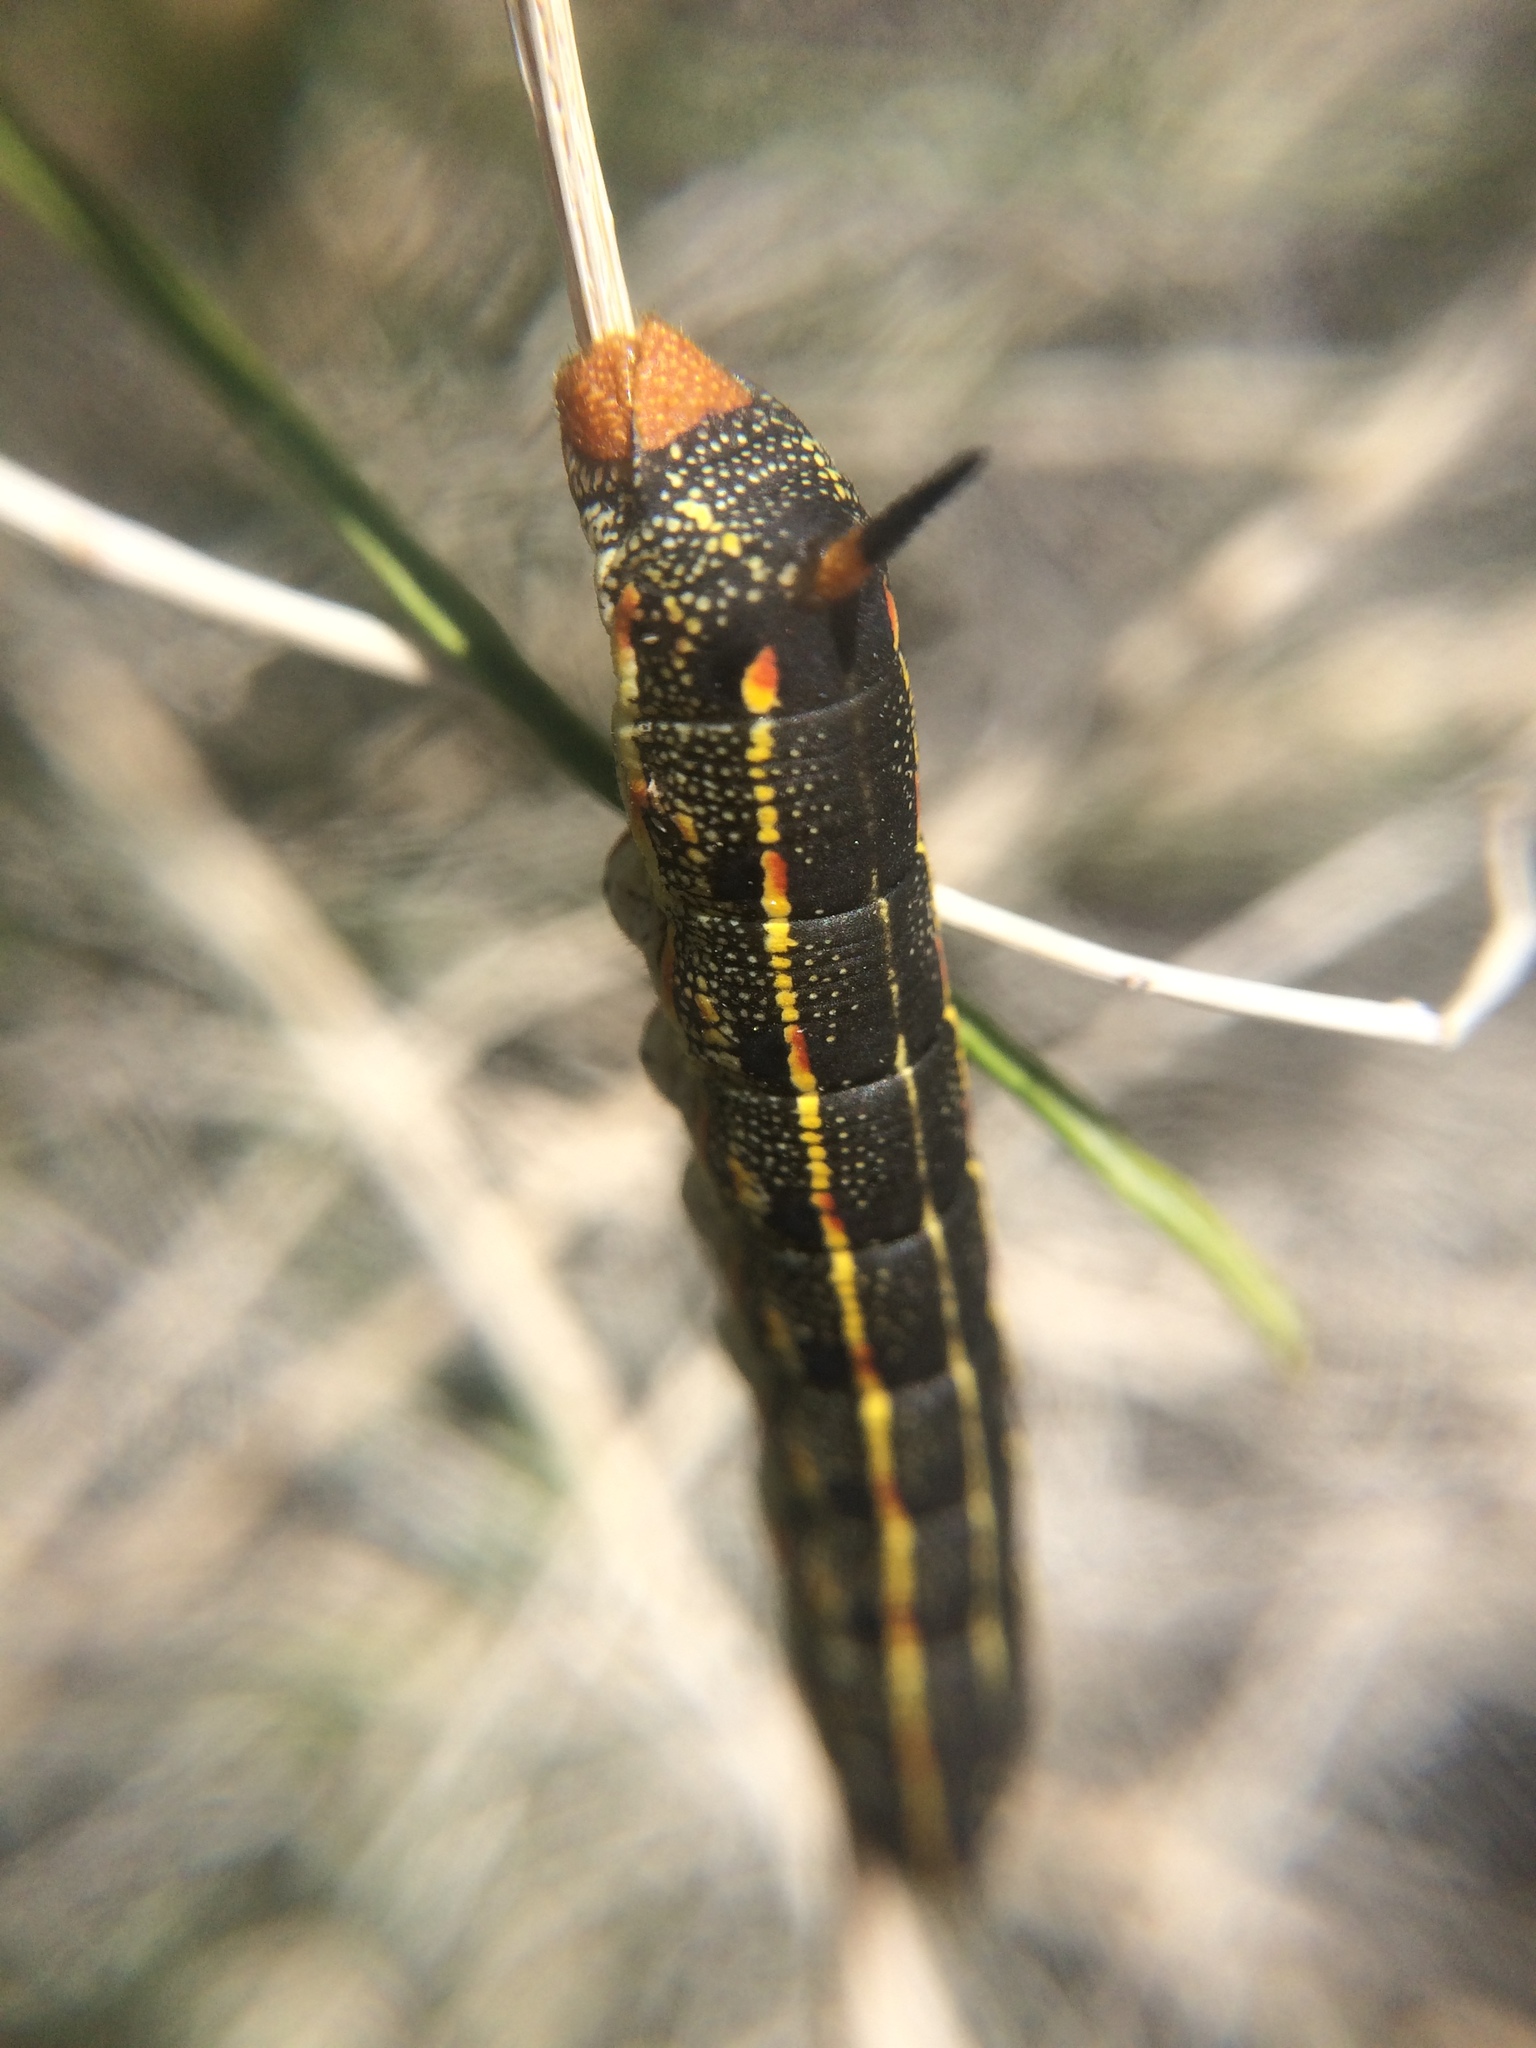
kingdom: Animalia
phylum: Arthropoda
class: Insecta
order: Lepidoptera
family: Sphingidae
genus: Hyles
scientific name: Hyles lineata
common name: White-lined sphinx
